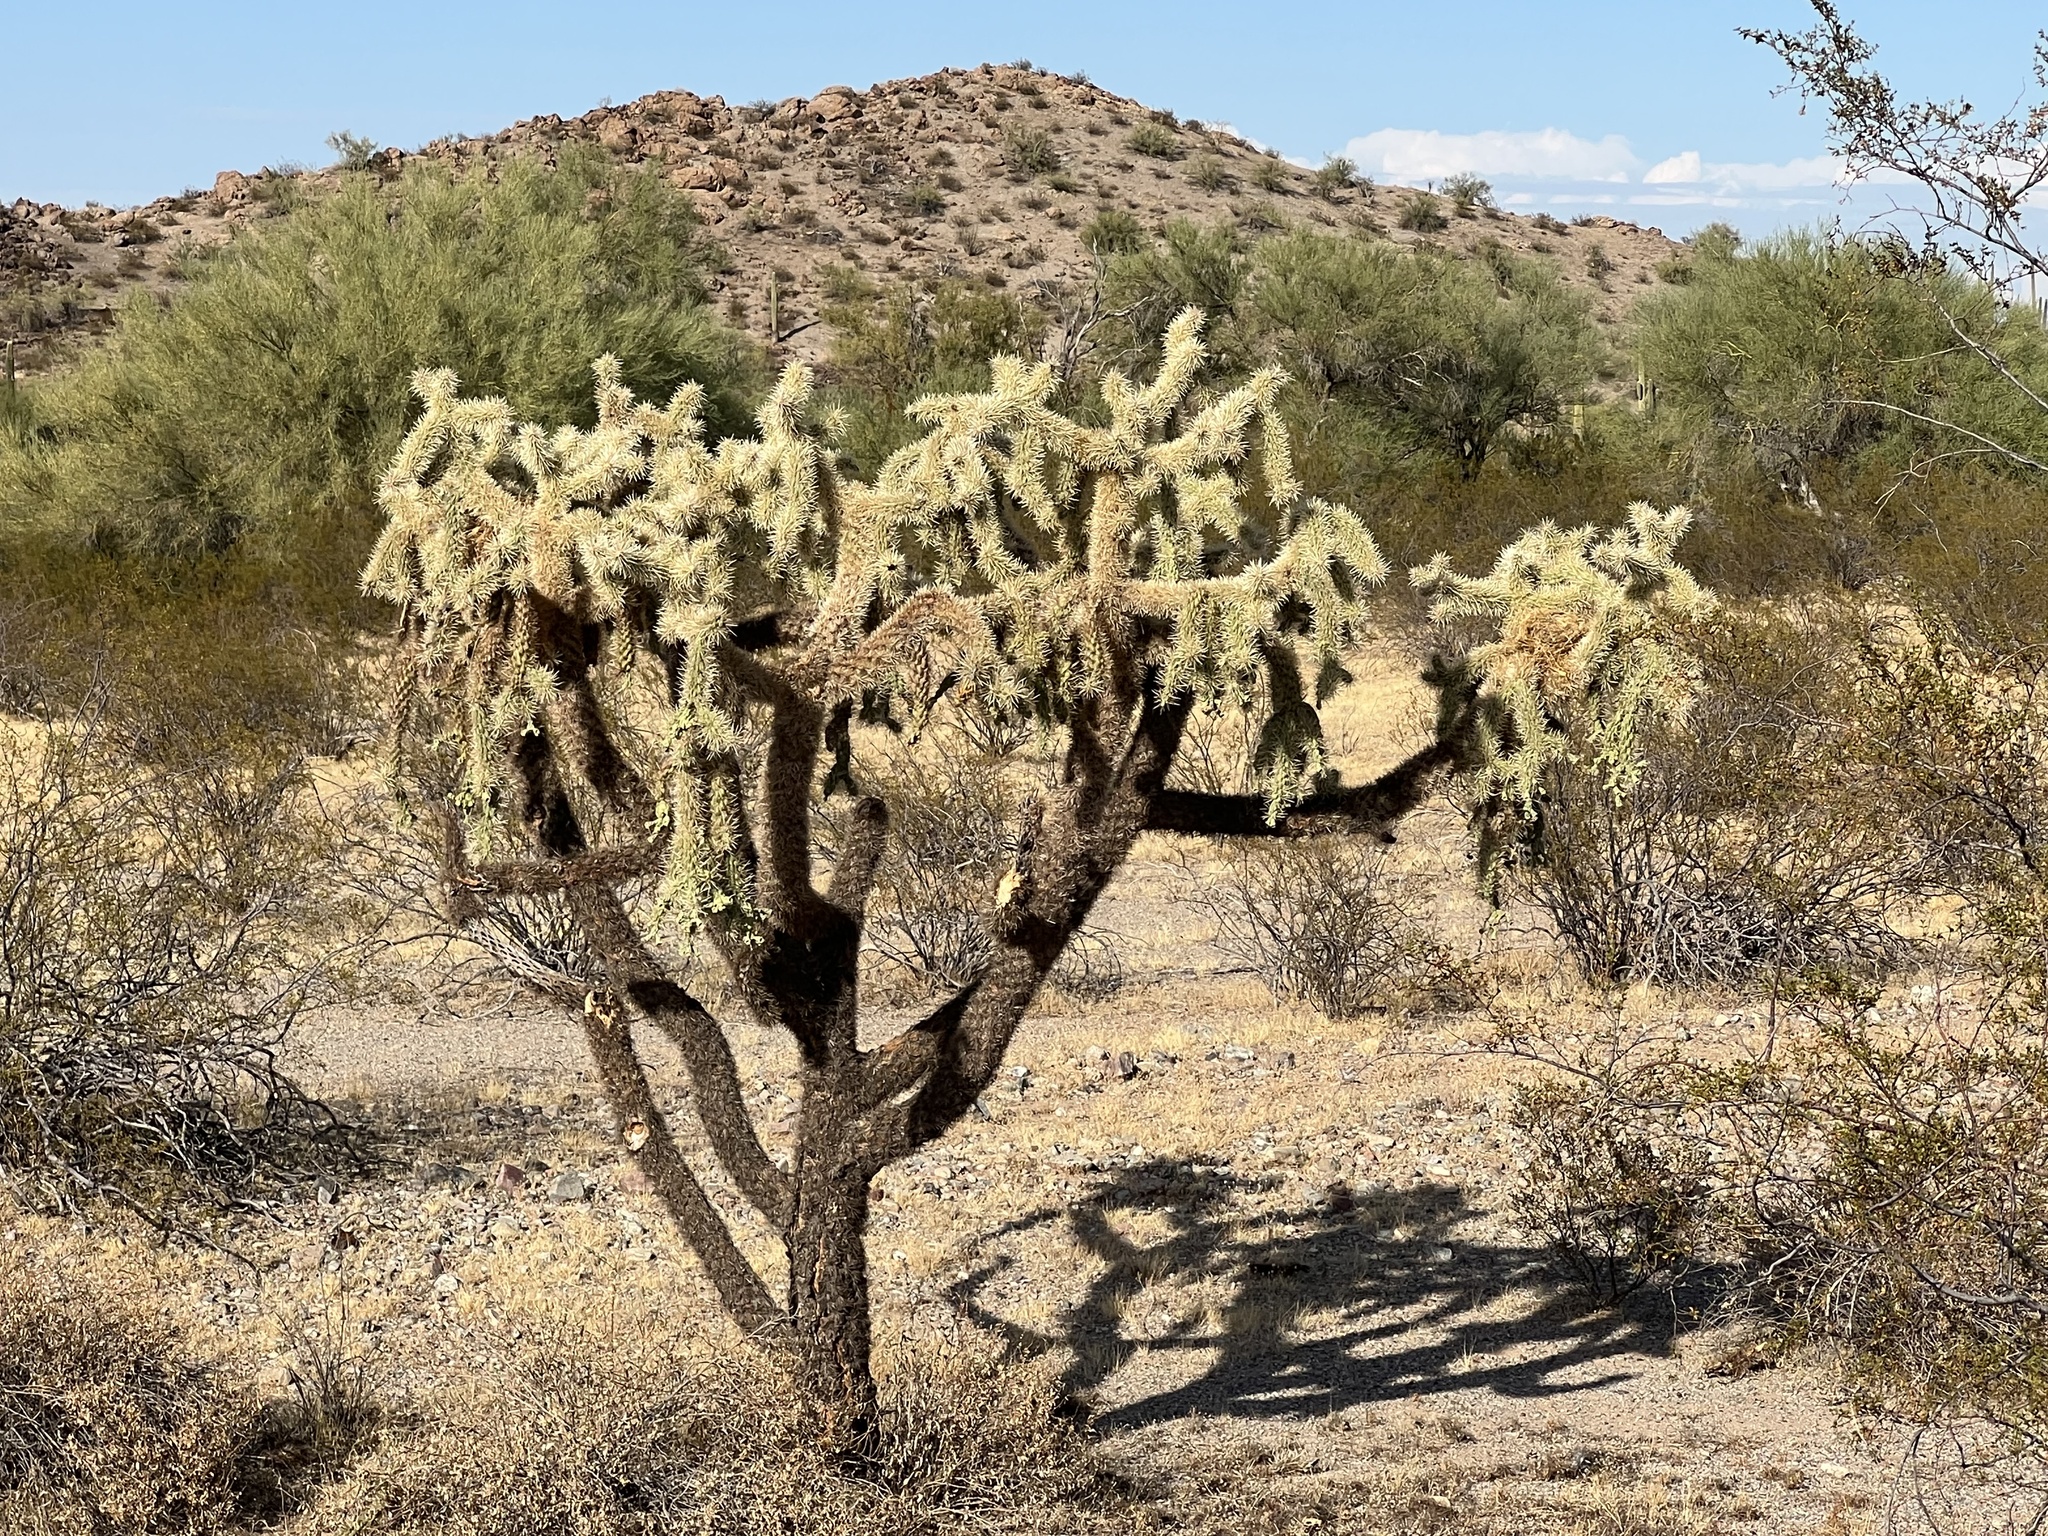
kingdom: Plantae
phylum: Tracheophyta
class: Magnoliopsida
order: Caryophyllales
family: Cactaceae
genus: Cylindropuntia
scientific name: Cylindropuntia fulgida
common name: Jumping cholla
